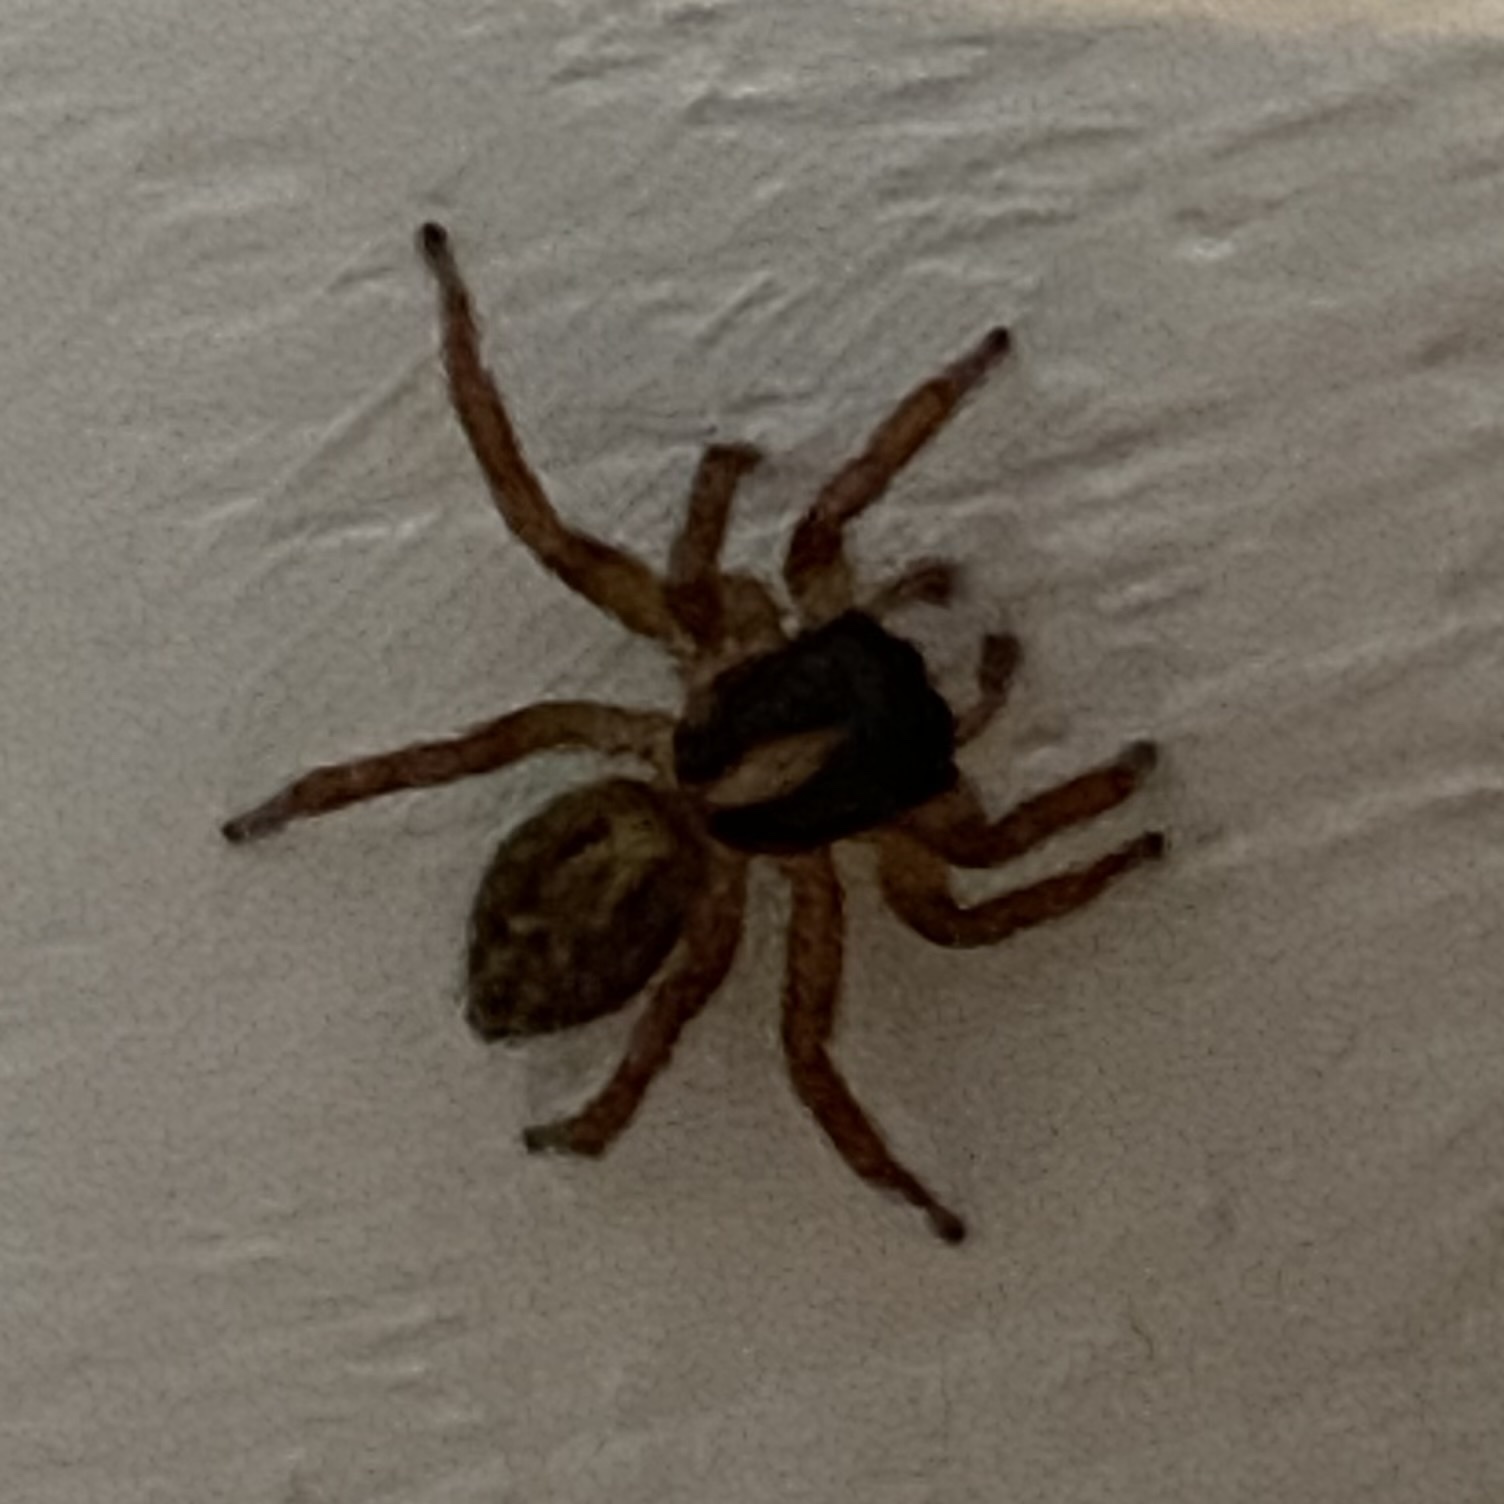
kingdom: Animalia
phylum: Arthropoda
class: Arachnida
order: Araneae
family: Salticidae
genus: Saitis
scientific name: Saitis barbipes
